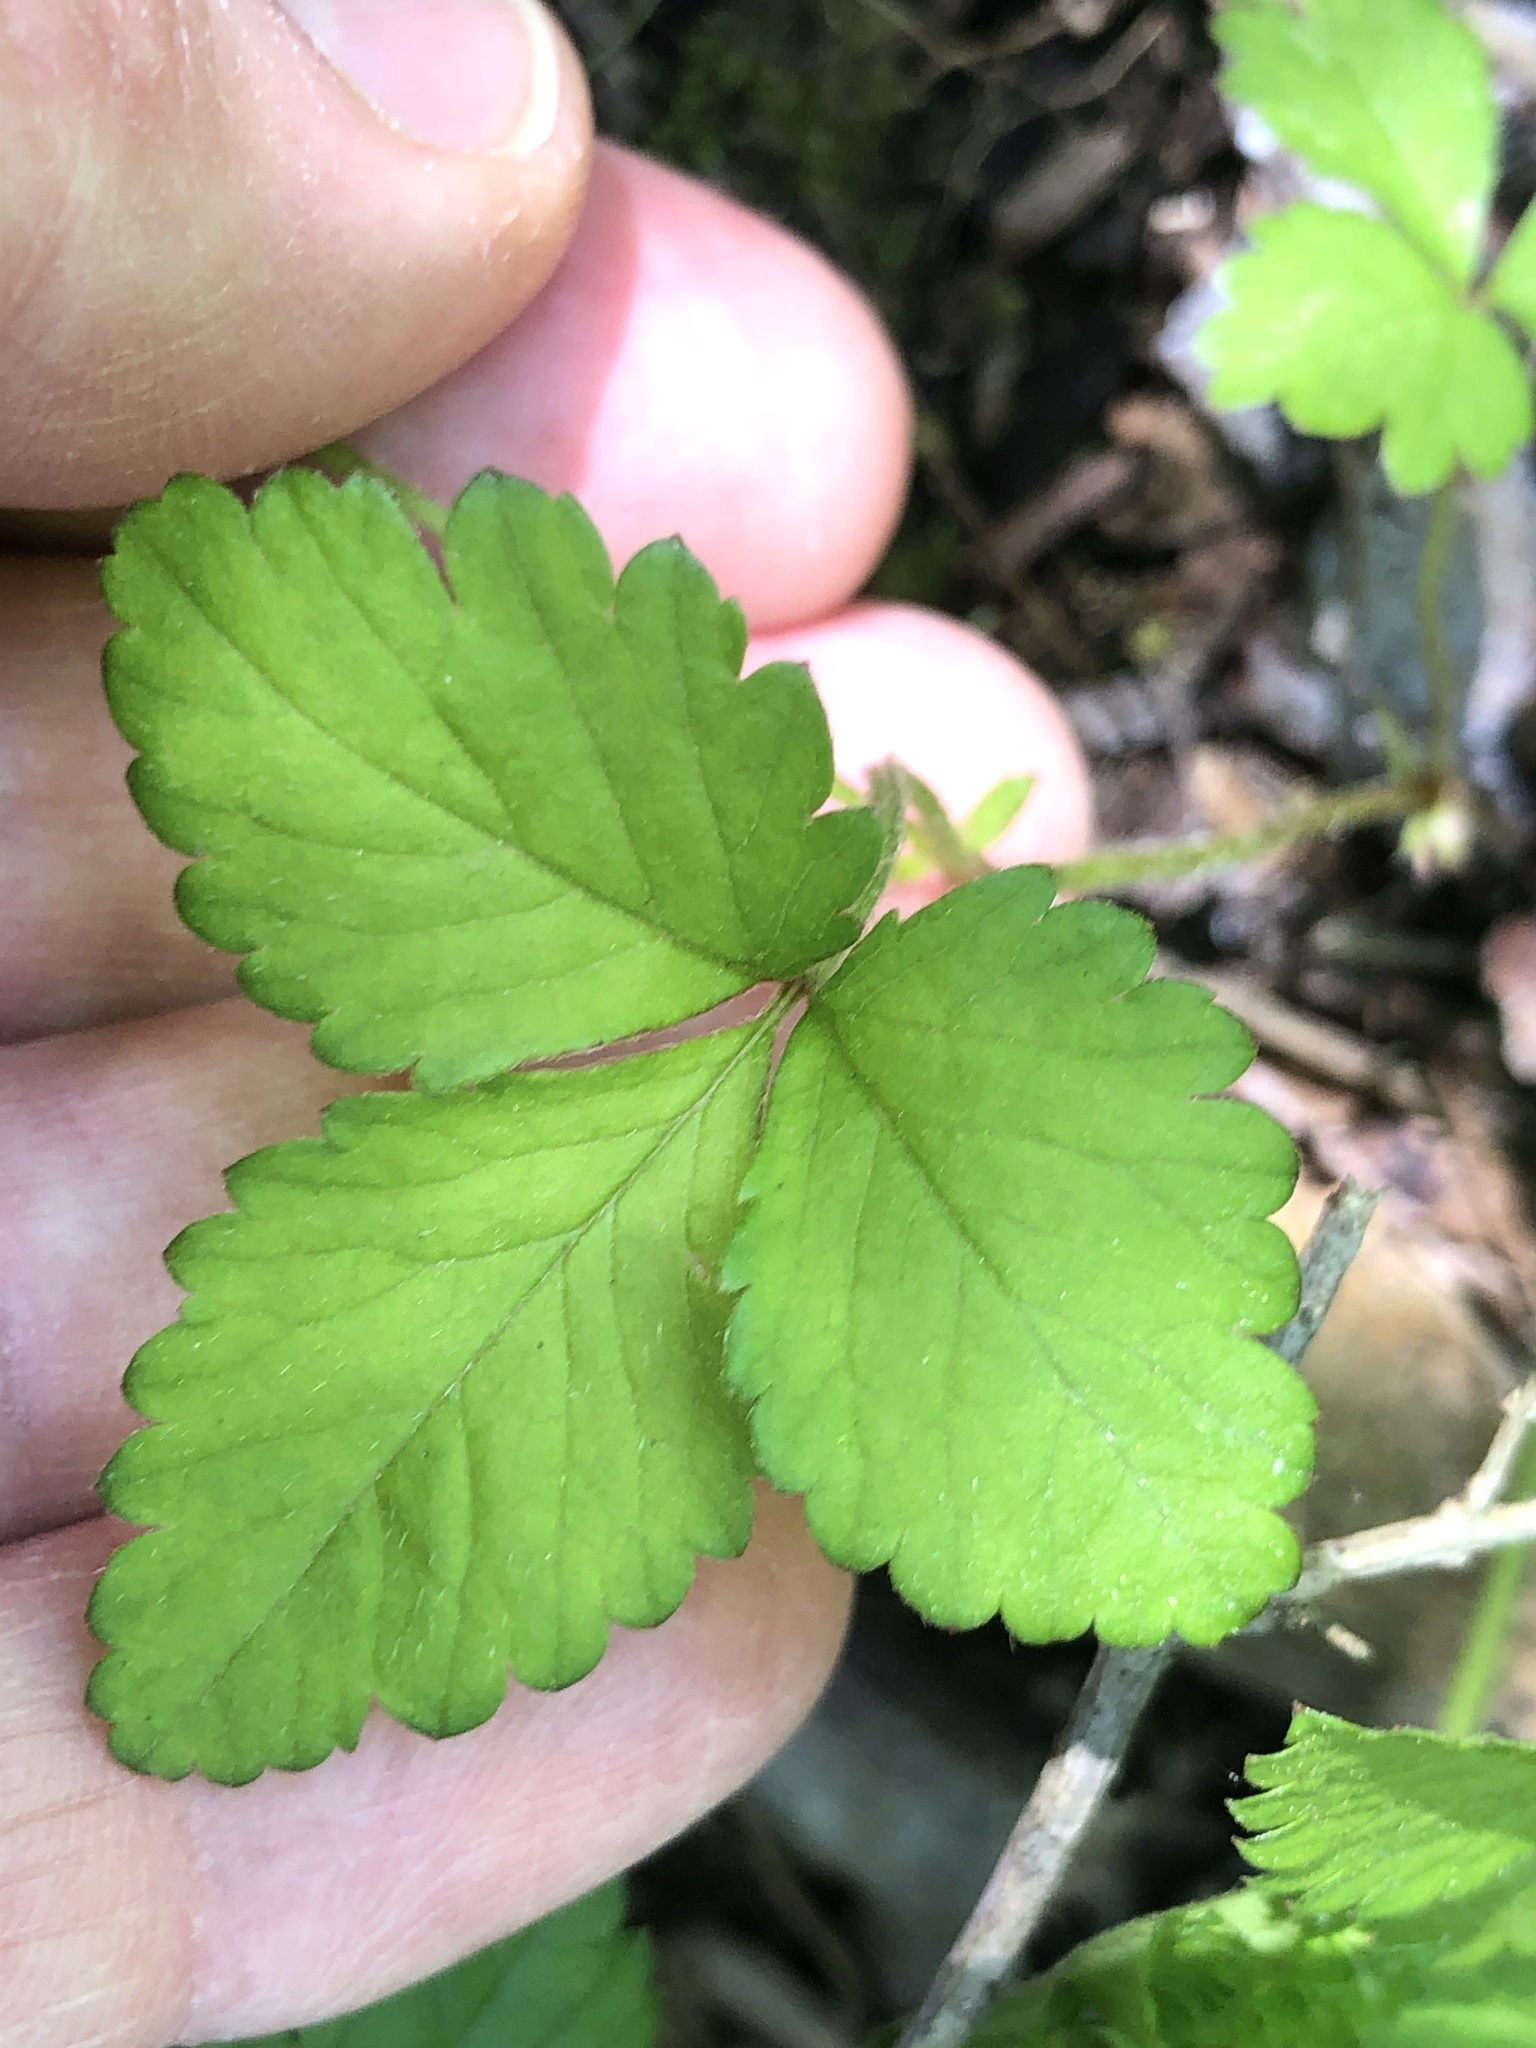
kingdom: Plantae
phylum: Tracheophyta
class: Magnoliopsida
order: Rosales
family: Rosaceae
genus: Potentilla
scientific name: Potentilla indica
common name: Yellow-flowered strawberry
